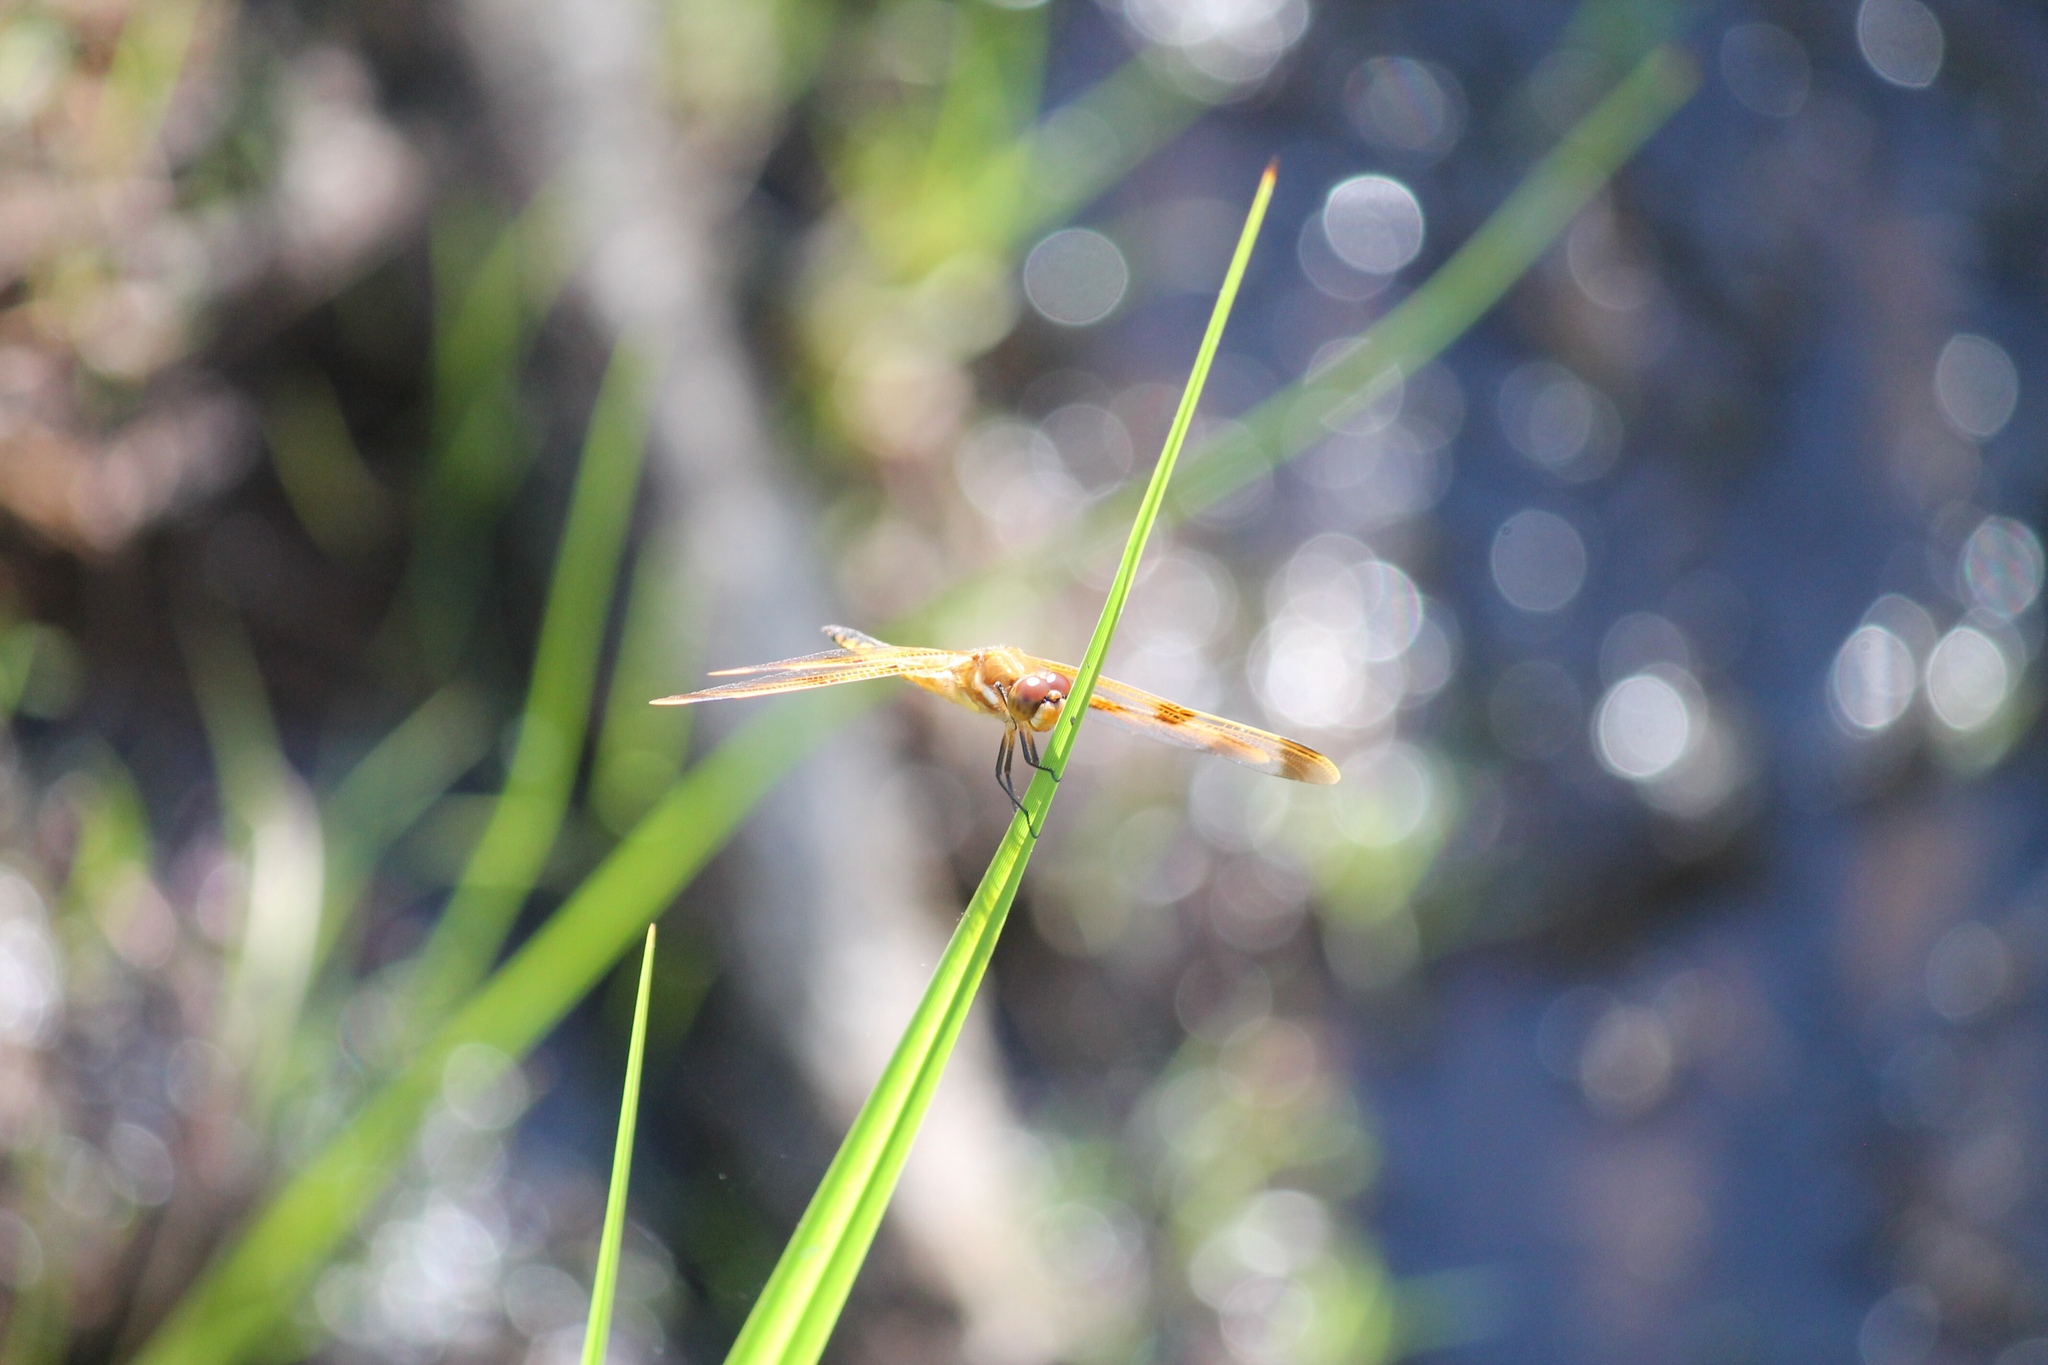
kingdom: Animalia
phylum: Arthropoda
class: Insecta
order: Odonata
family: Libellulidae
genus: Libellula
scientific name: Libellula semifasciata
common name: Painted skimmer
